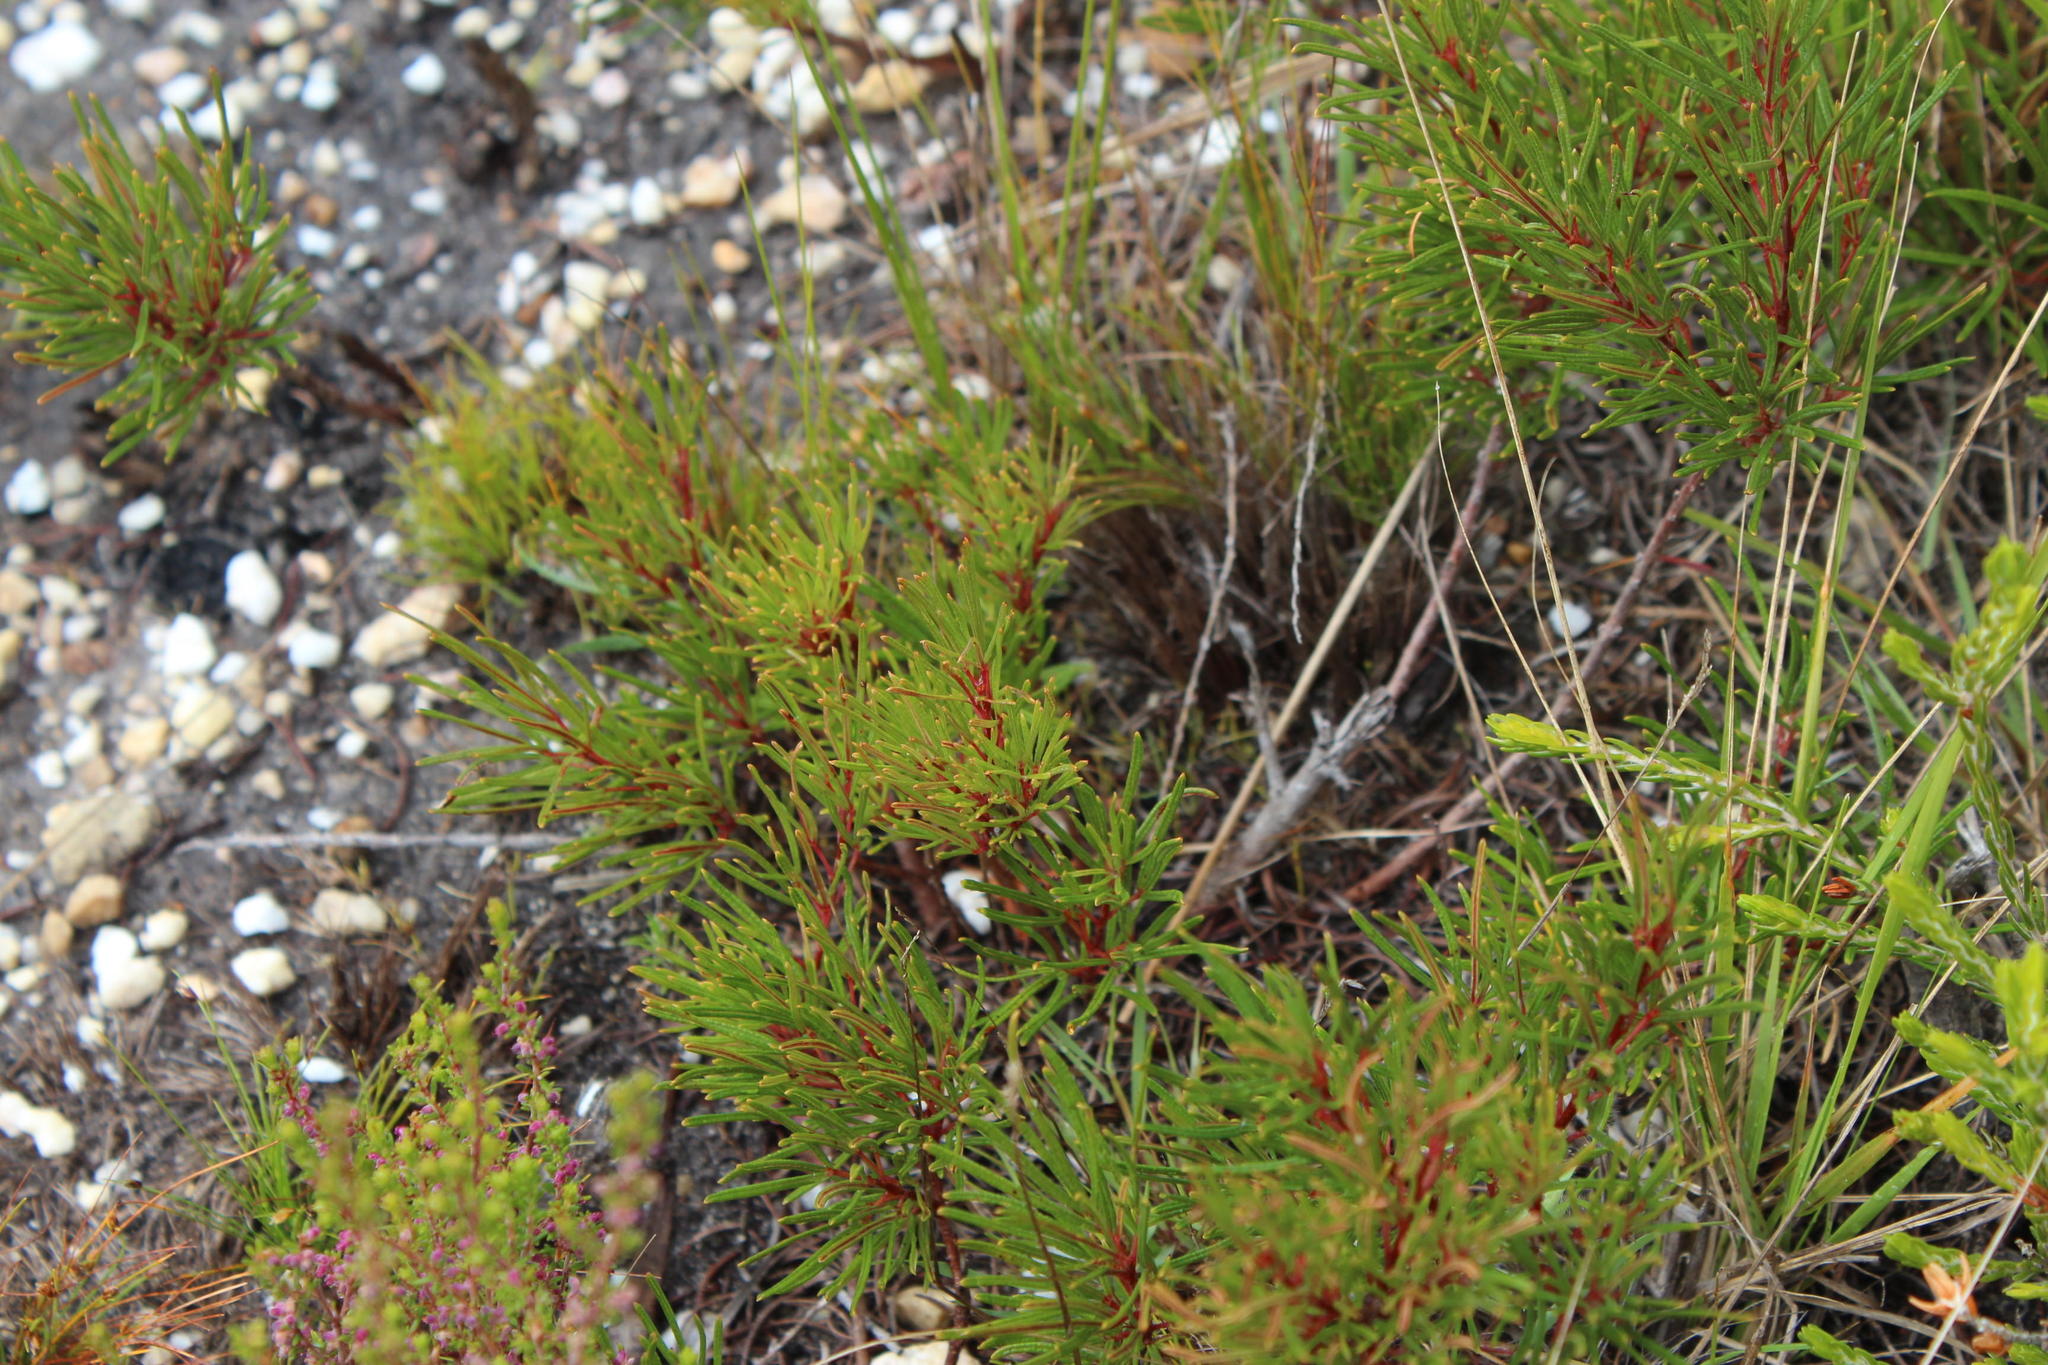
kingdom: Plantae
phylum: Tracheophyta
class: Magnoliopsida
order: Sapindales
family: Anacardiaceae
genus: Searsia
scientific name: Searsia rosmarinifolia
